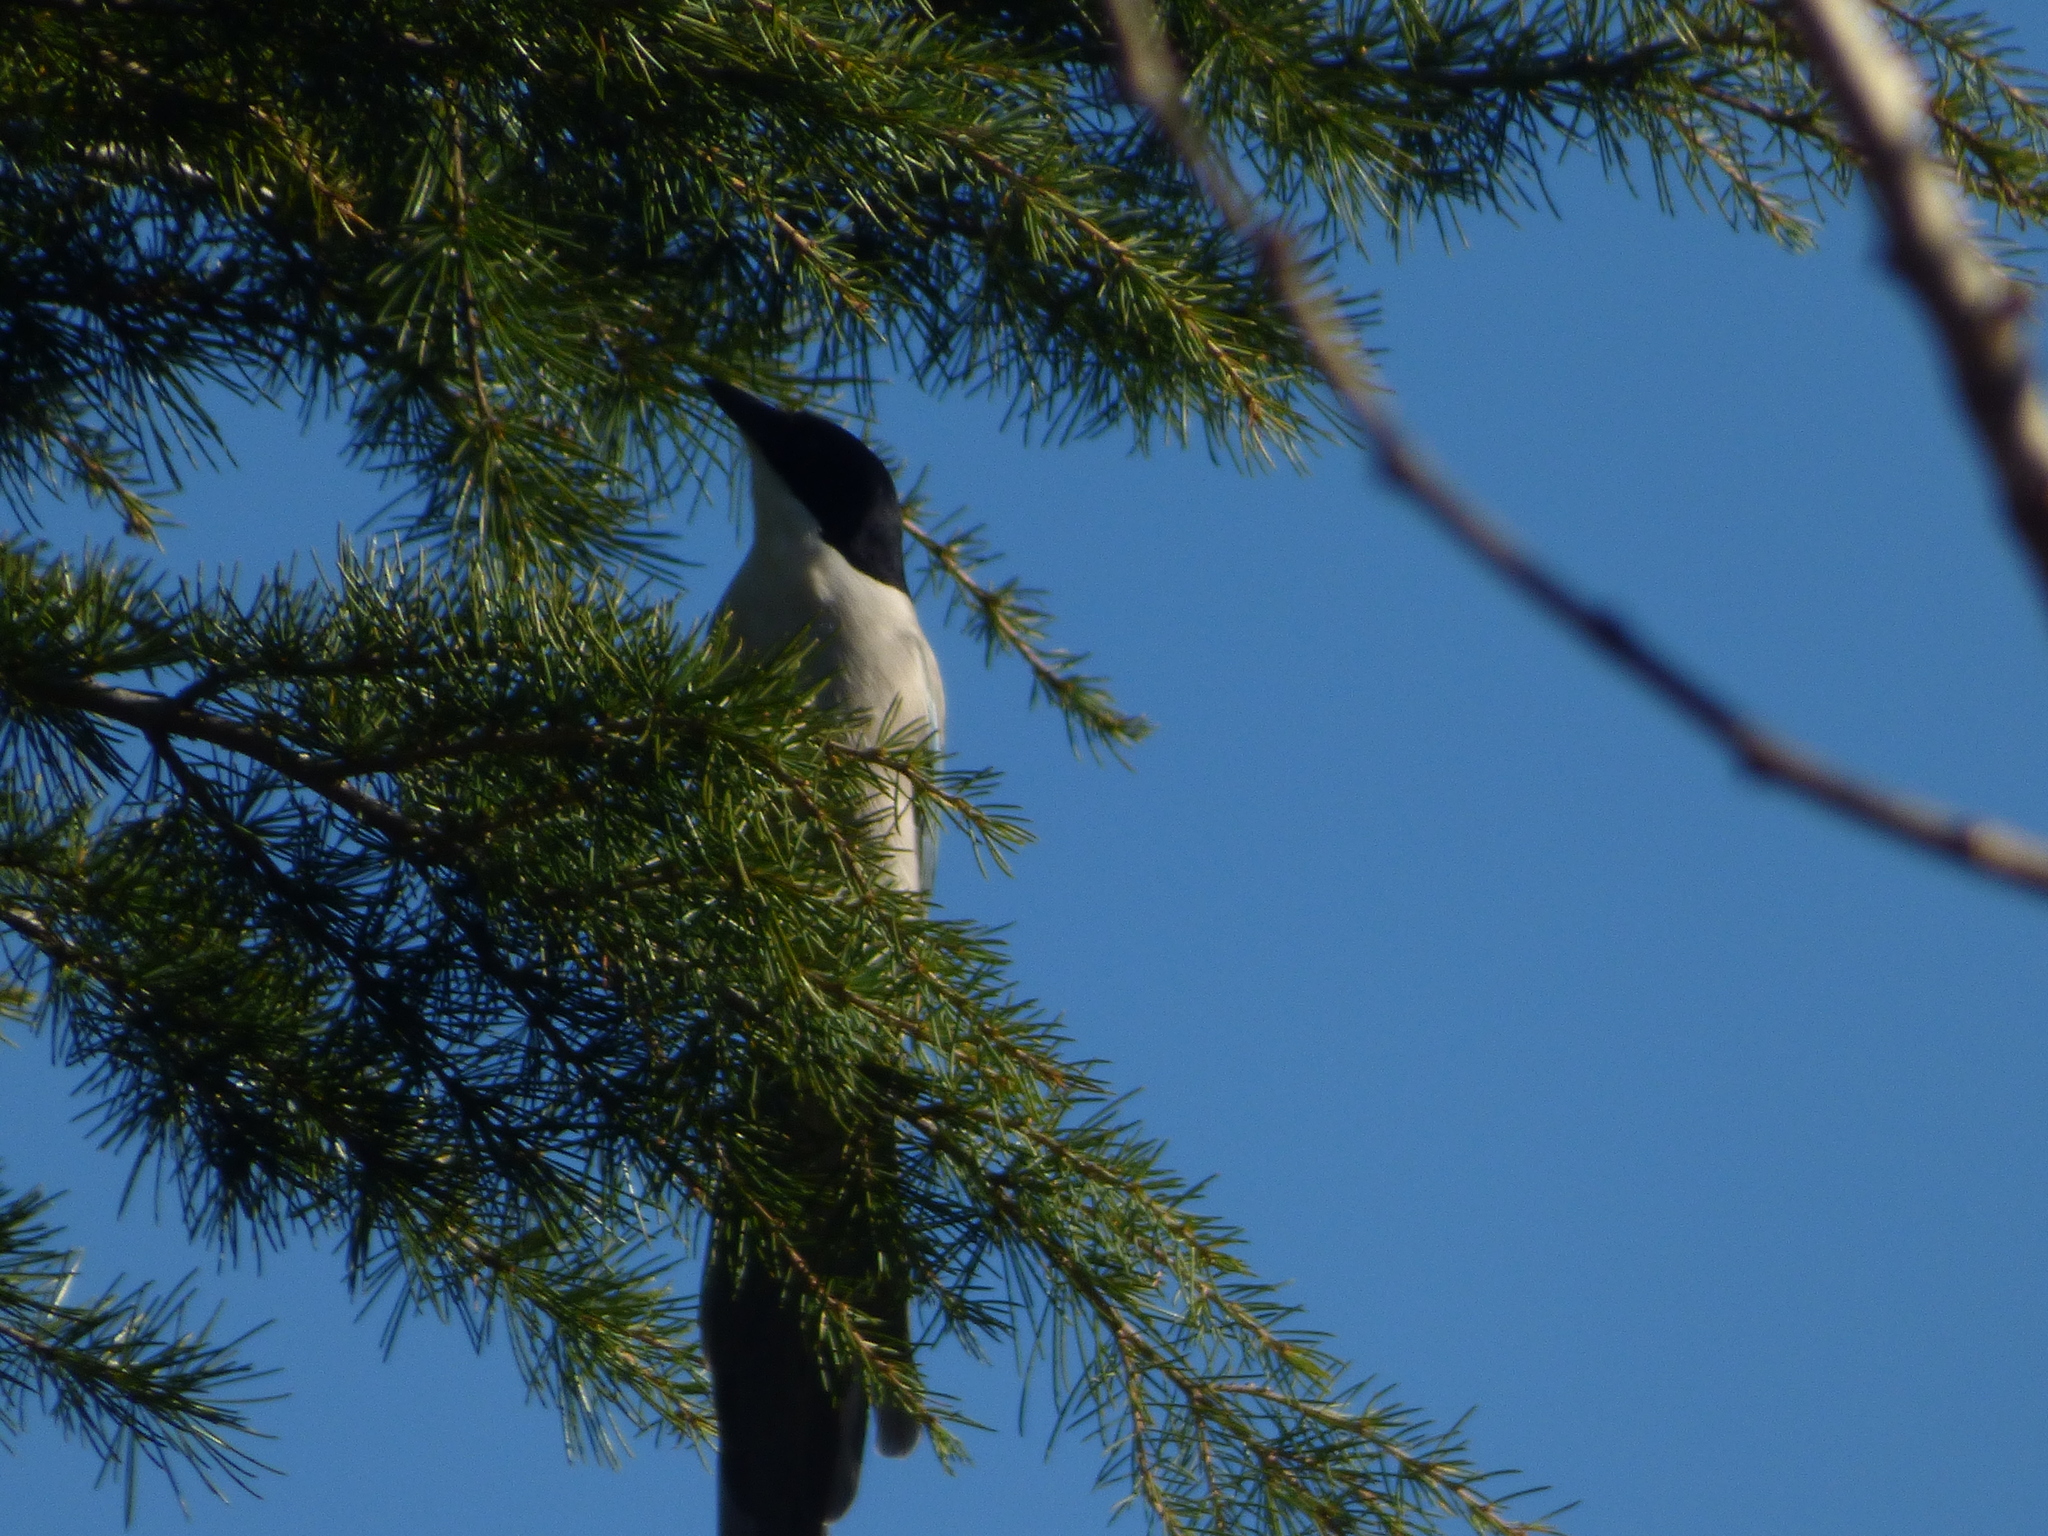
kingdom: Animalia
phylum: Chordata
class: Aves
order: Passeriformes
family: Corvidae
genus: Cyanopica
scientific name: Cyanopica cyanus
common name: Azure-winged magpie
